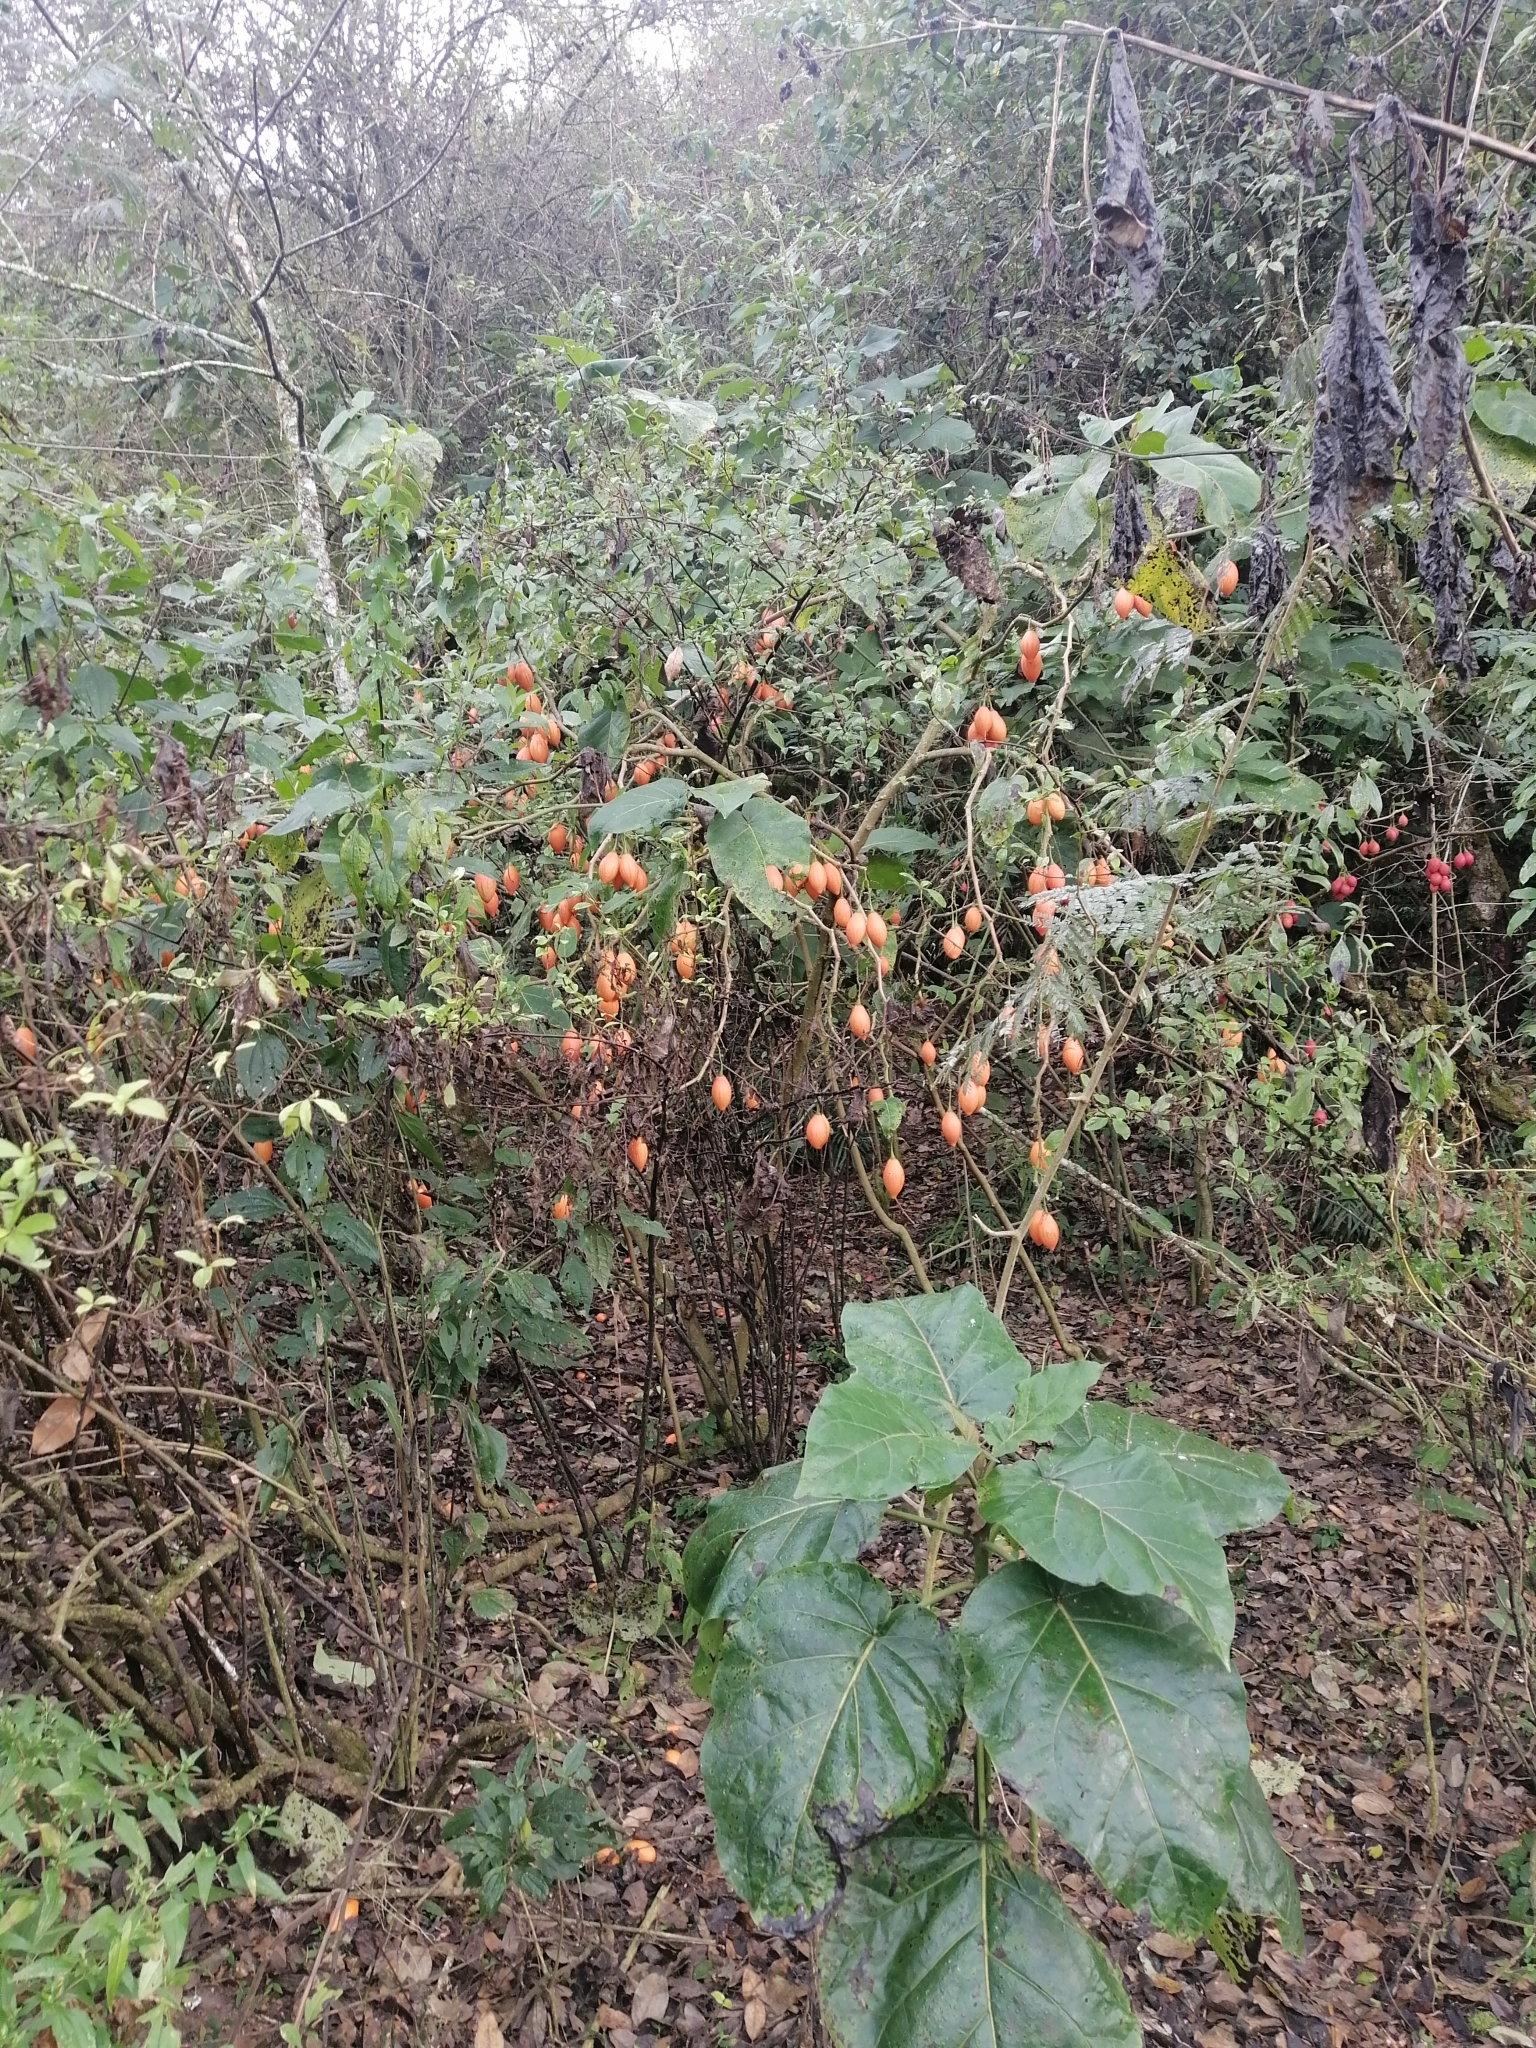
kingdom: Plantae
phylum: Tracheophyta
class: Magnoliopsida
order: Solanales
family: Solanaceae
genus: Solanum
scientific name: Solanum betaceum
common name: Tamarillo
